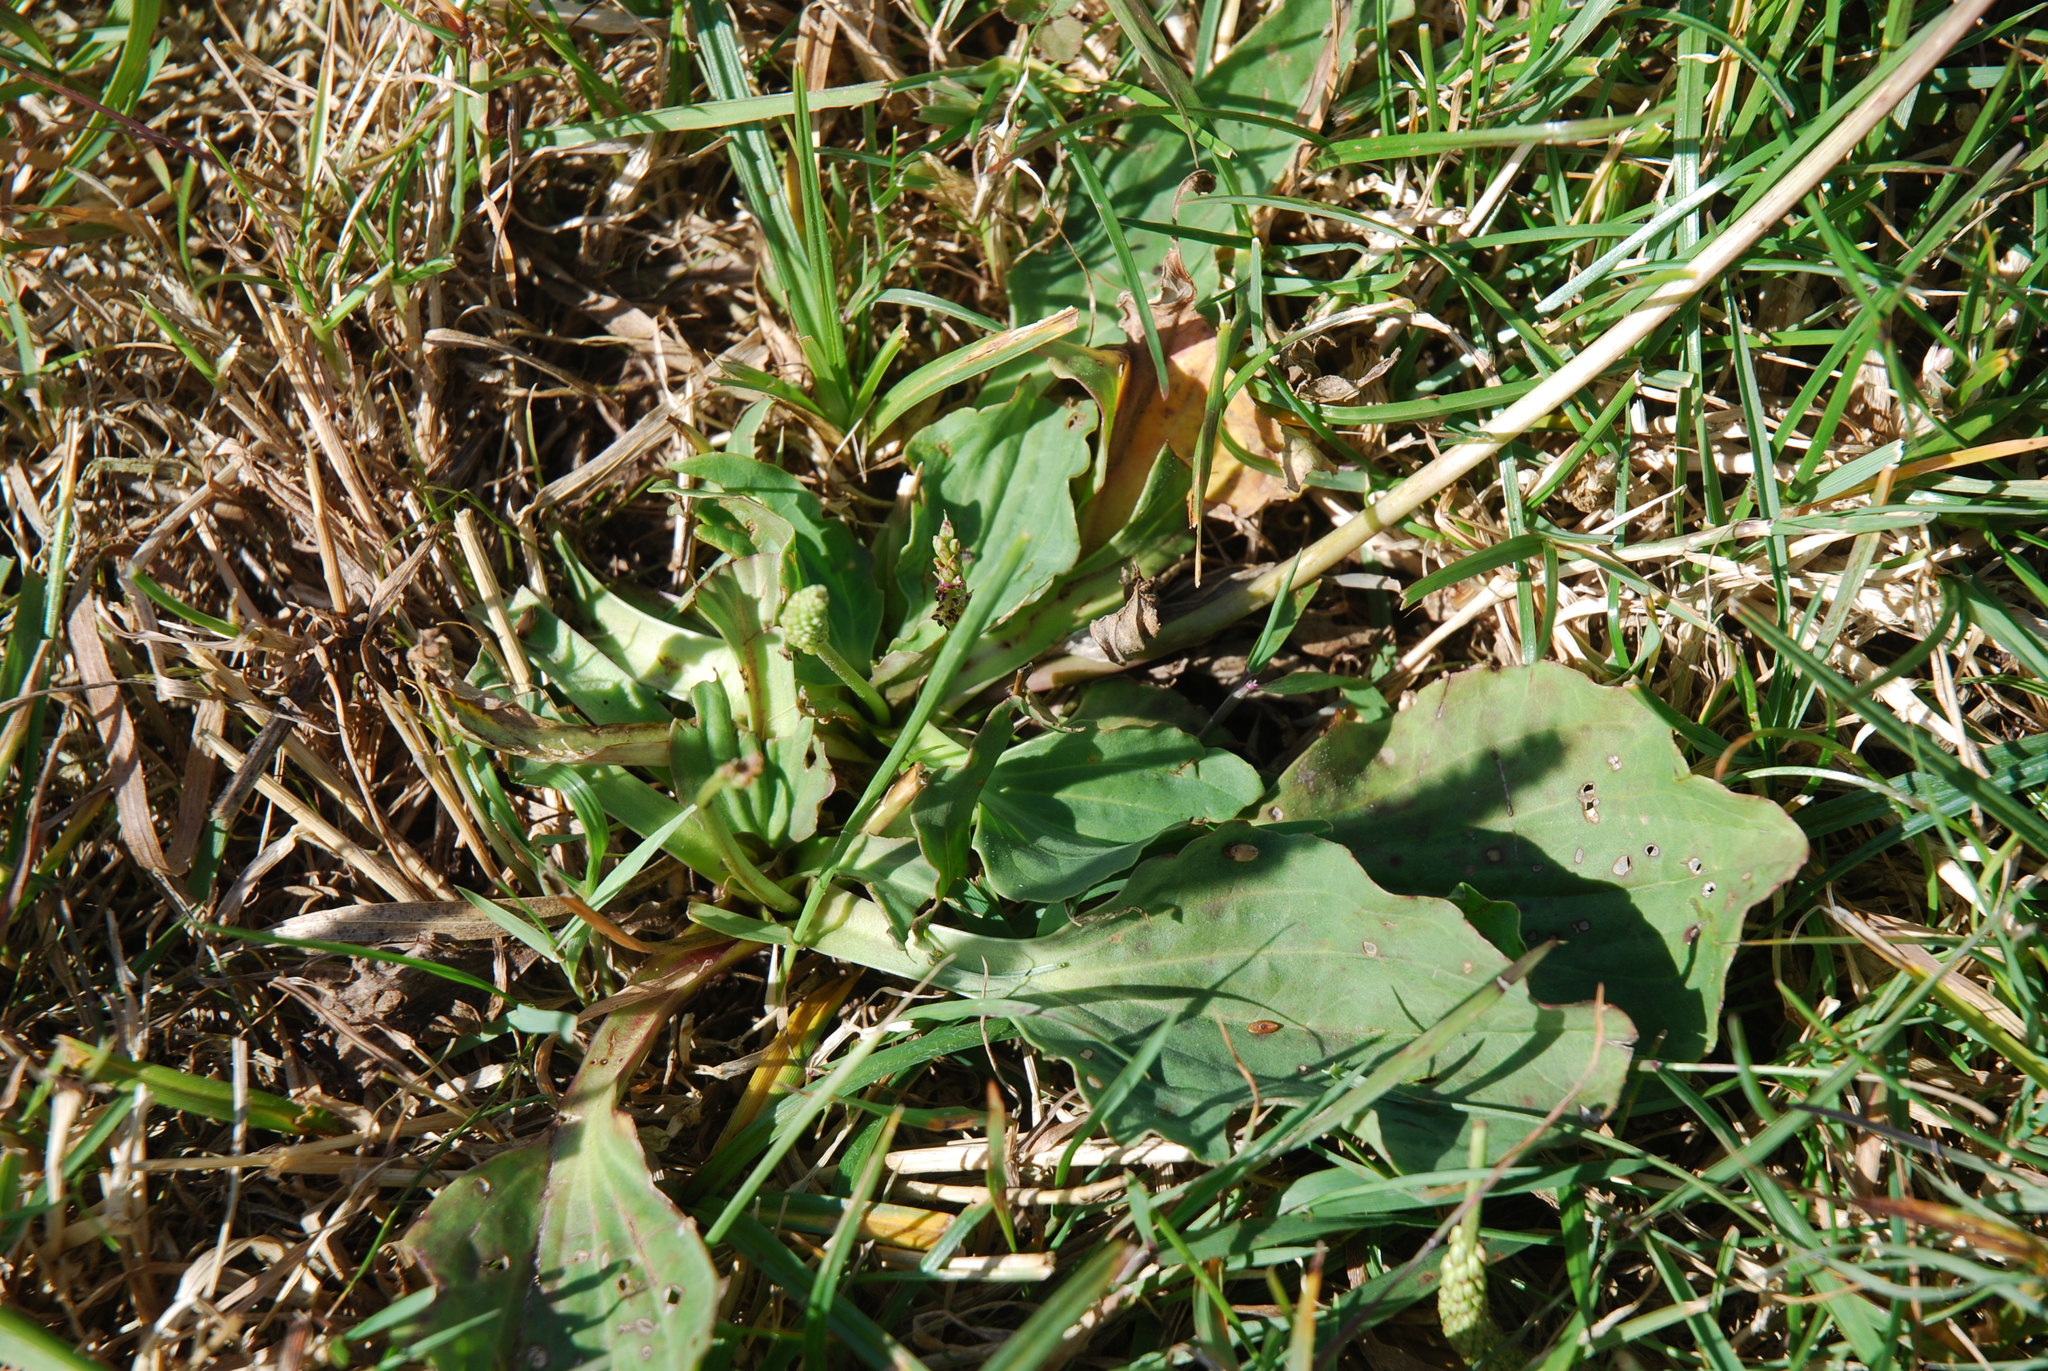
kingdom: Plantae
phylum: Tracheophyta
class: Magnoliopsida
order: Lamiales
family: Plantaginaceae
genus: Plantago
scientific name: Plantago major
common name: Common plantain
